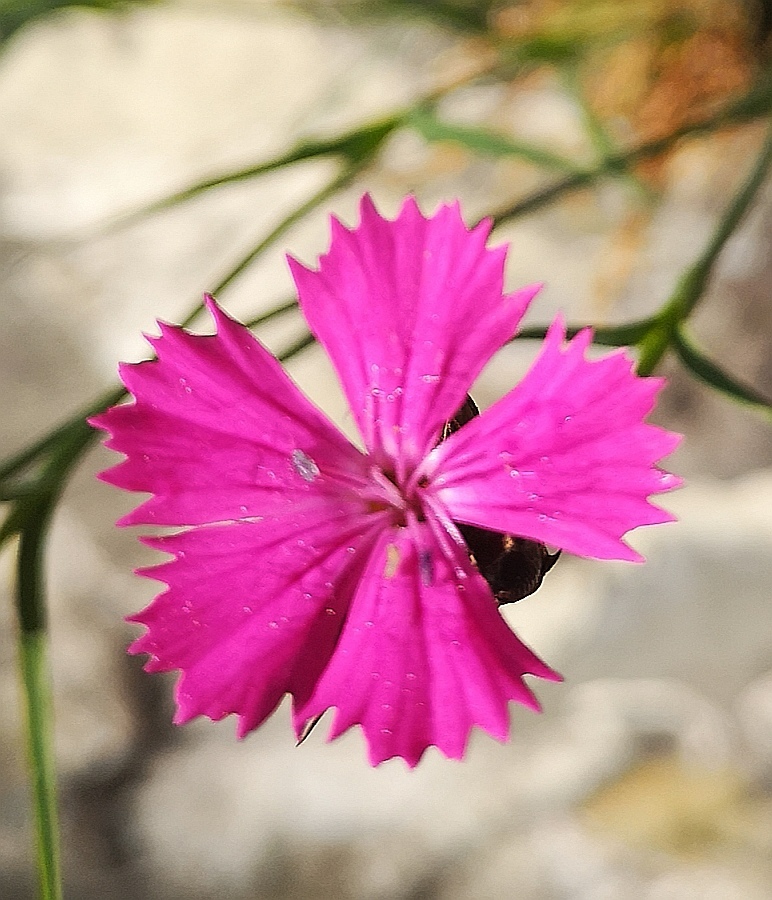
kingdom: Plantae
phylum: Tracheophyta
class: Magnoliopsida
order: Caryophyllales
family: Caryophyllaceae
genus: Dianthus
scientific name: Dianthus carthusianorum
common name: Carthusian pink
